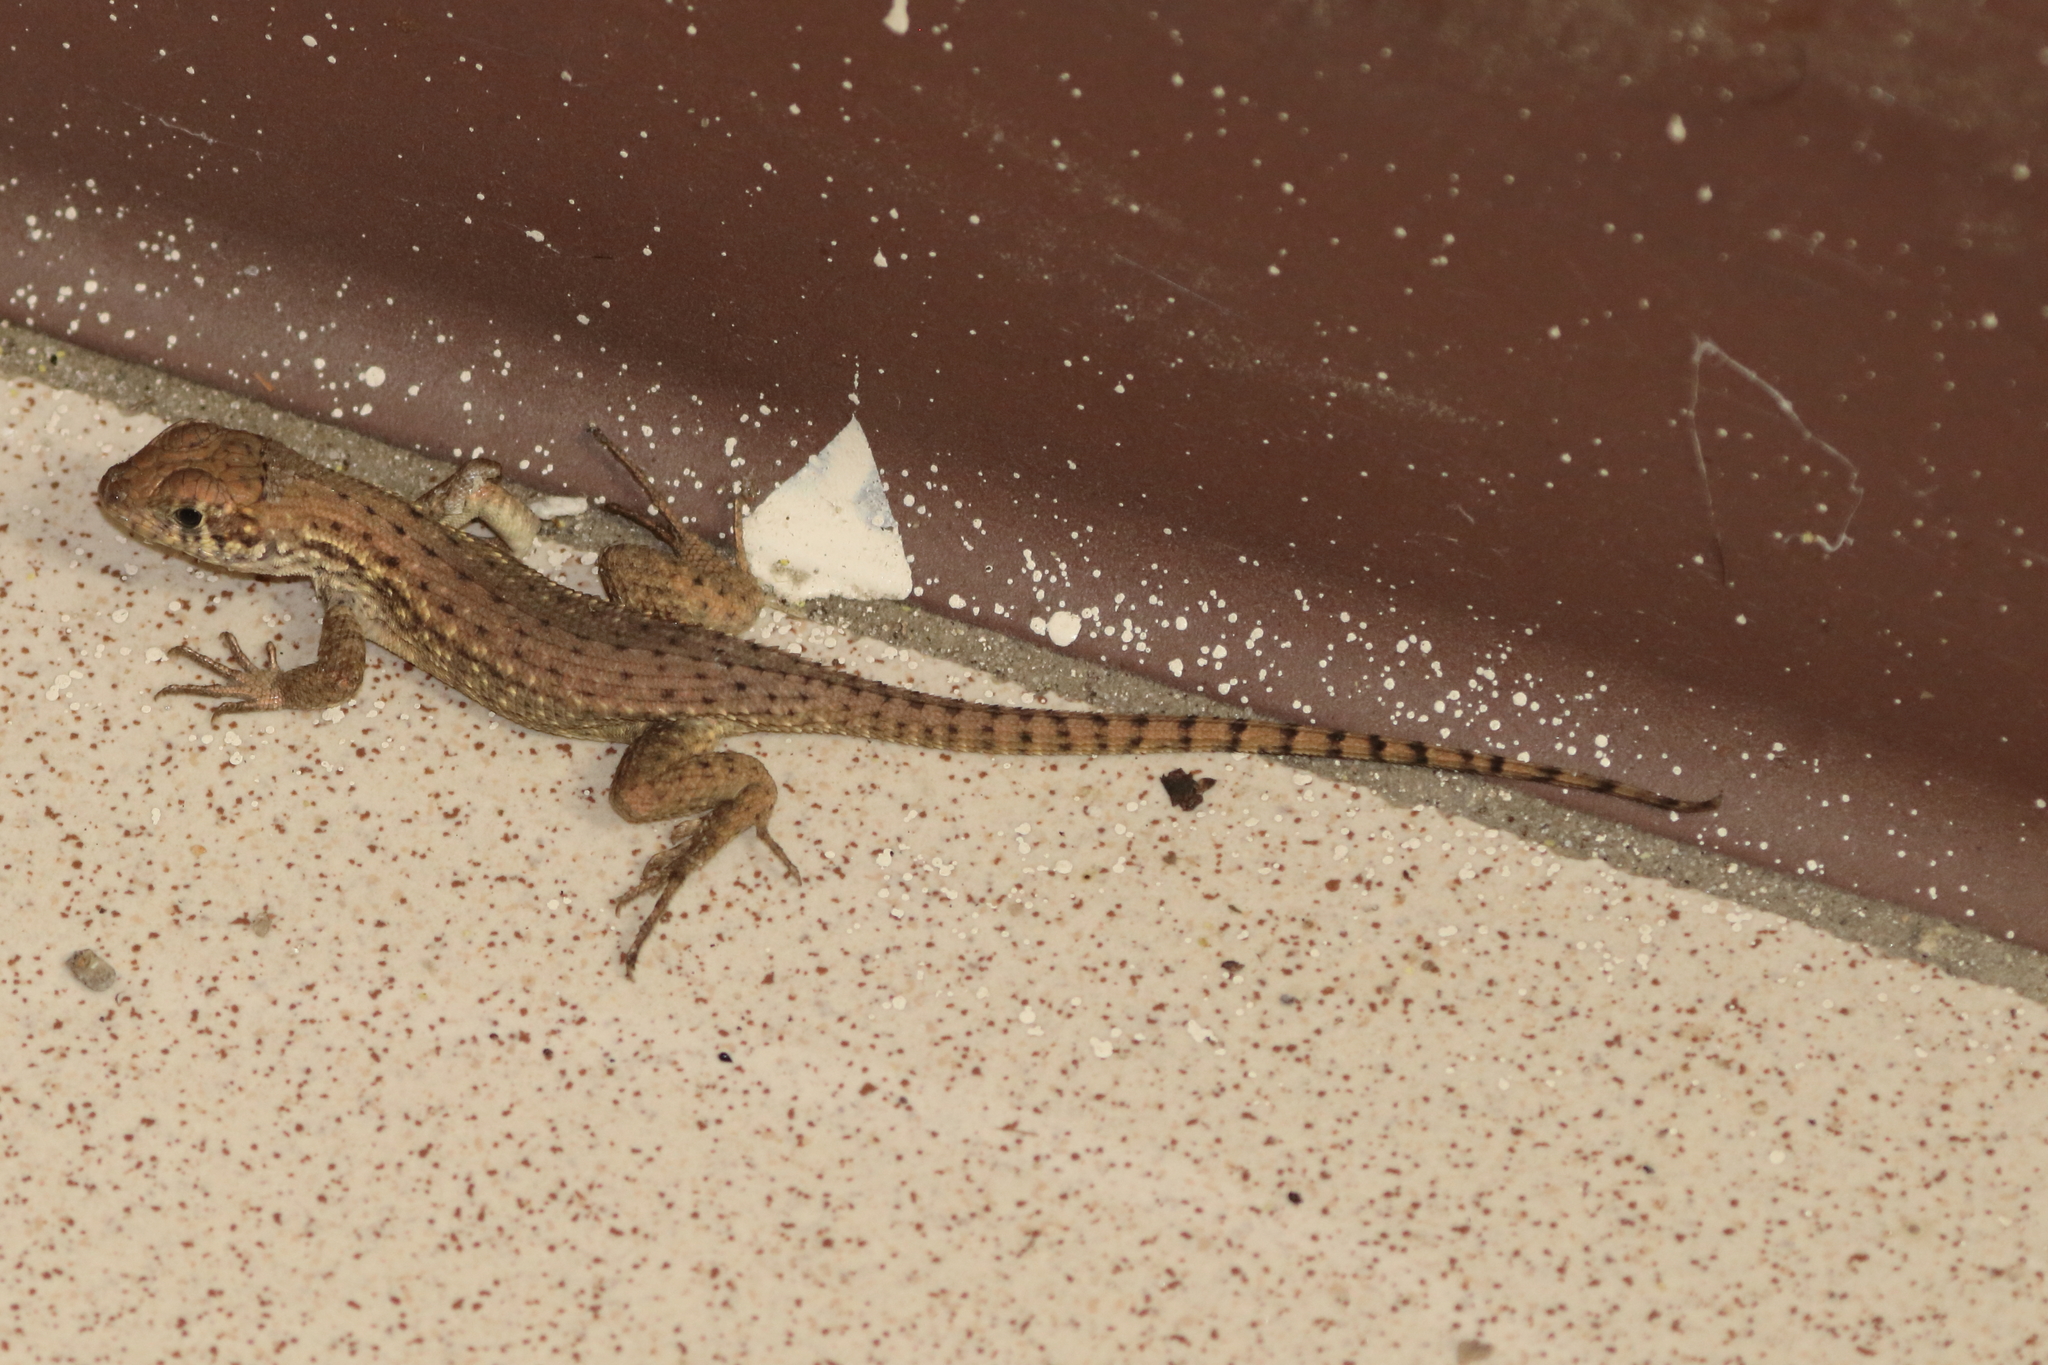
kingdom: Animalia
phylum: Chordata
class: Squamata
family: Leiocephalidae
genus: Leiocephalus
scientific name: Leiocephalus carinatus
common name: Northern curly-tailed lizard
